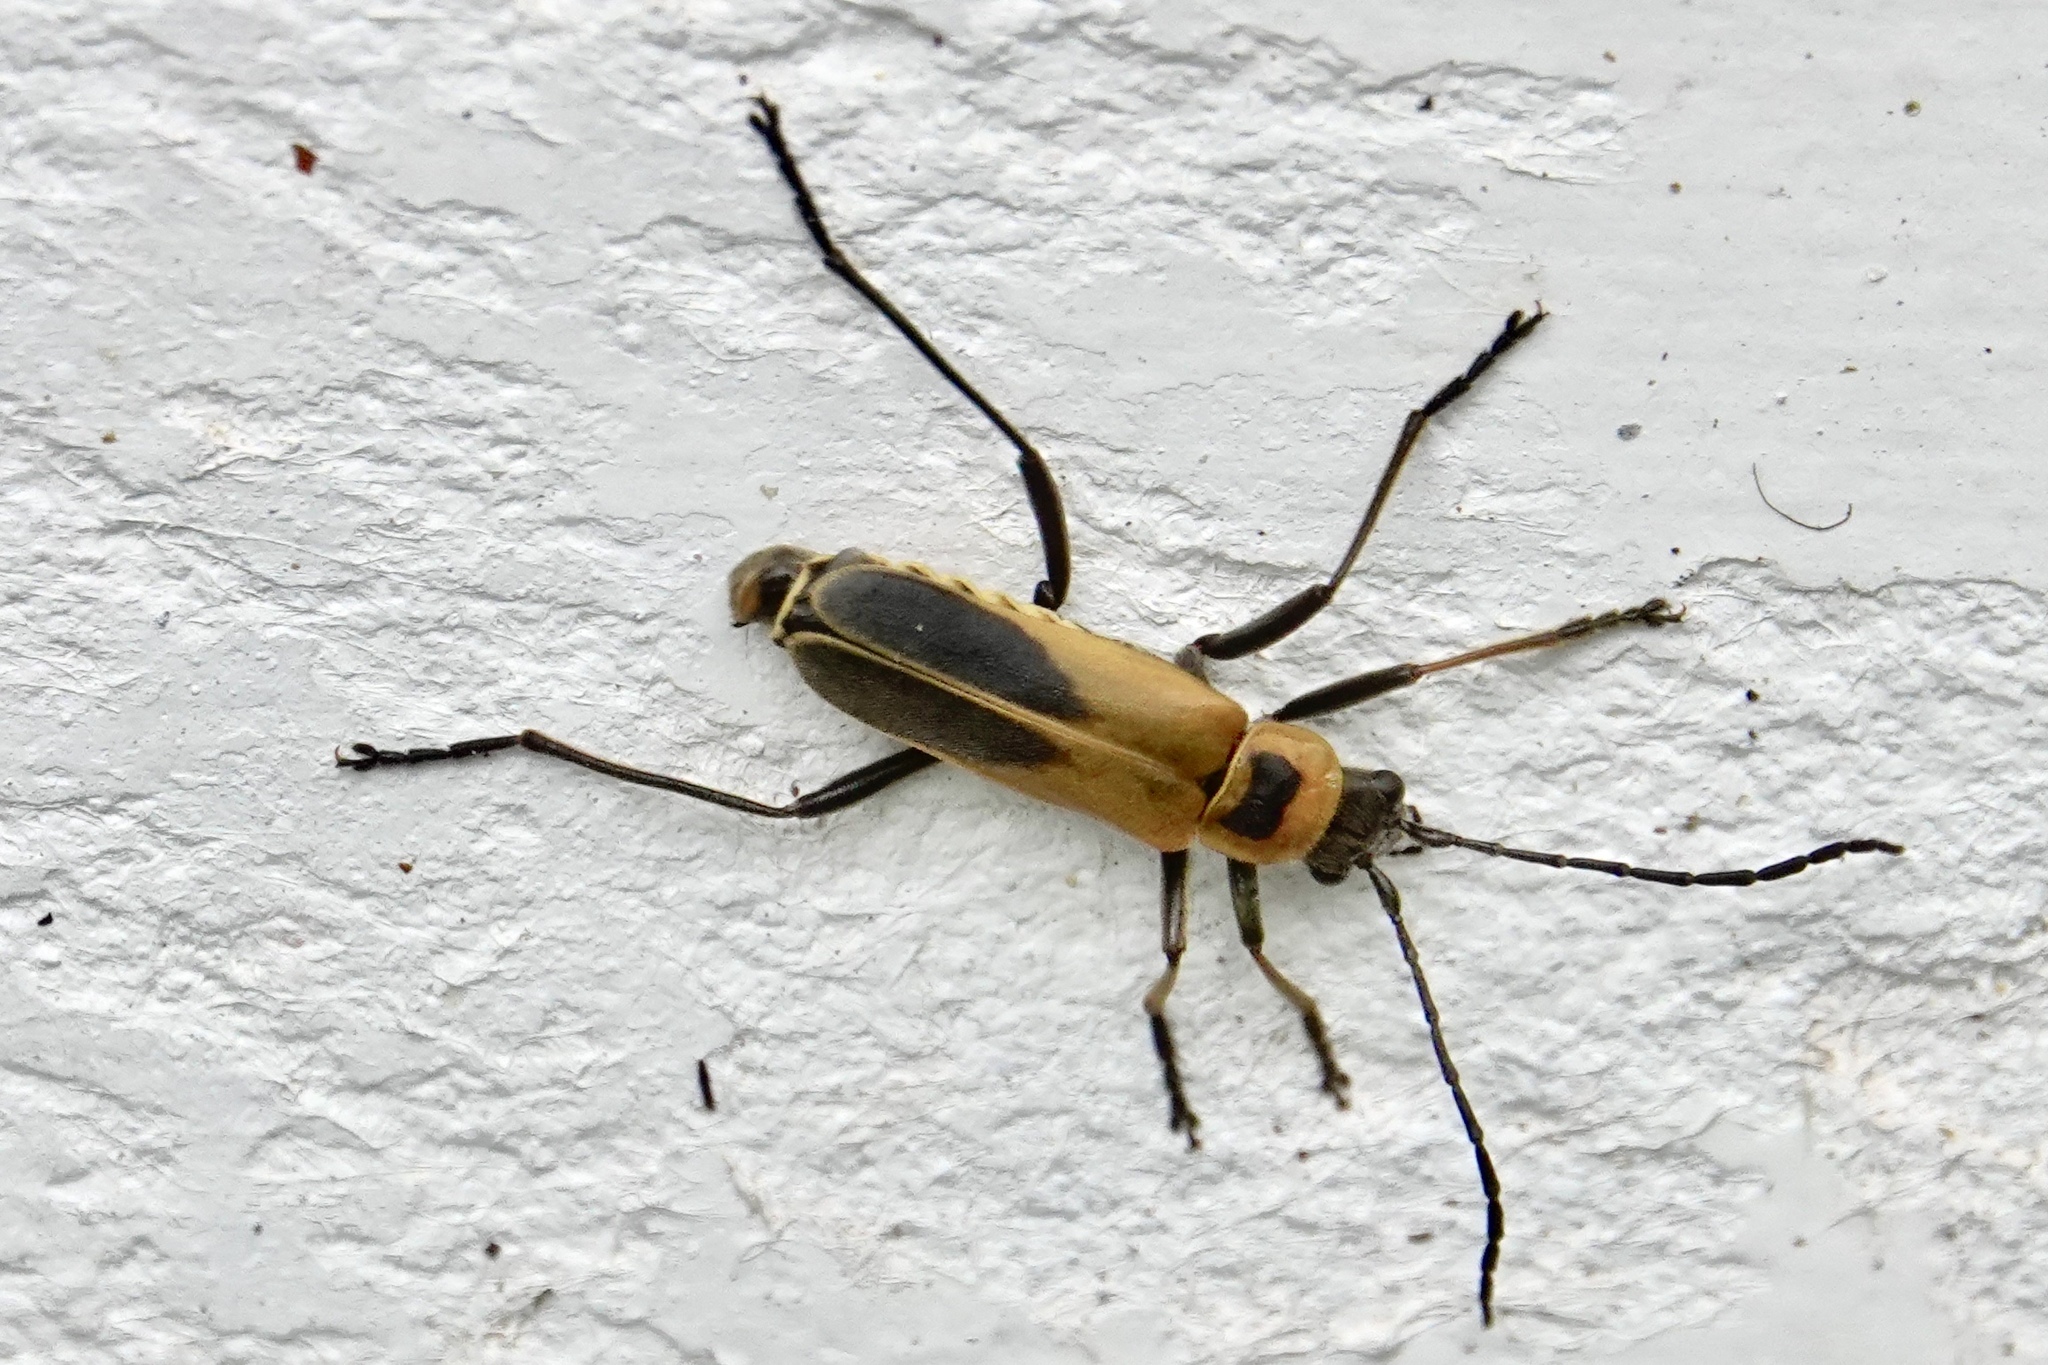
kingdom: Animalia
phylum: Arthropoda
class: Insecta
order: Coleoptera
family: Cantharidae
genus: Chauliognathus
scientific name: Chauliognathus pensylvanicus
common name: Goldenrod soldier beetle
